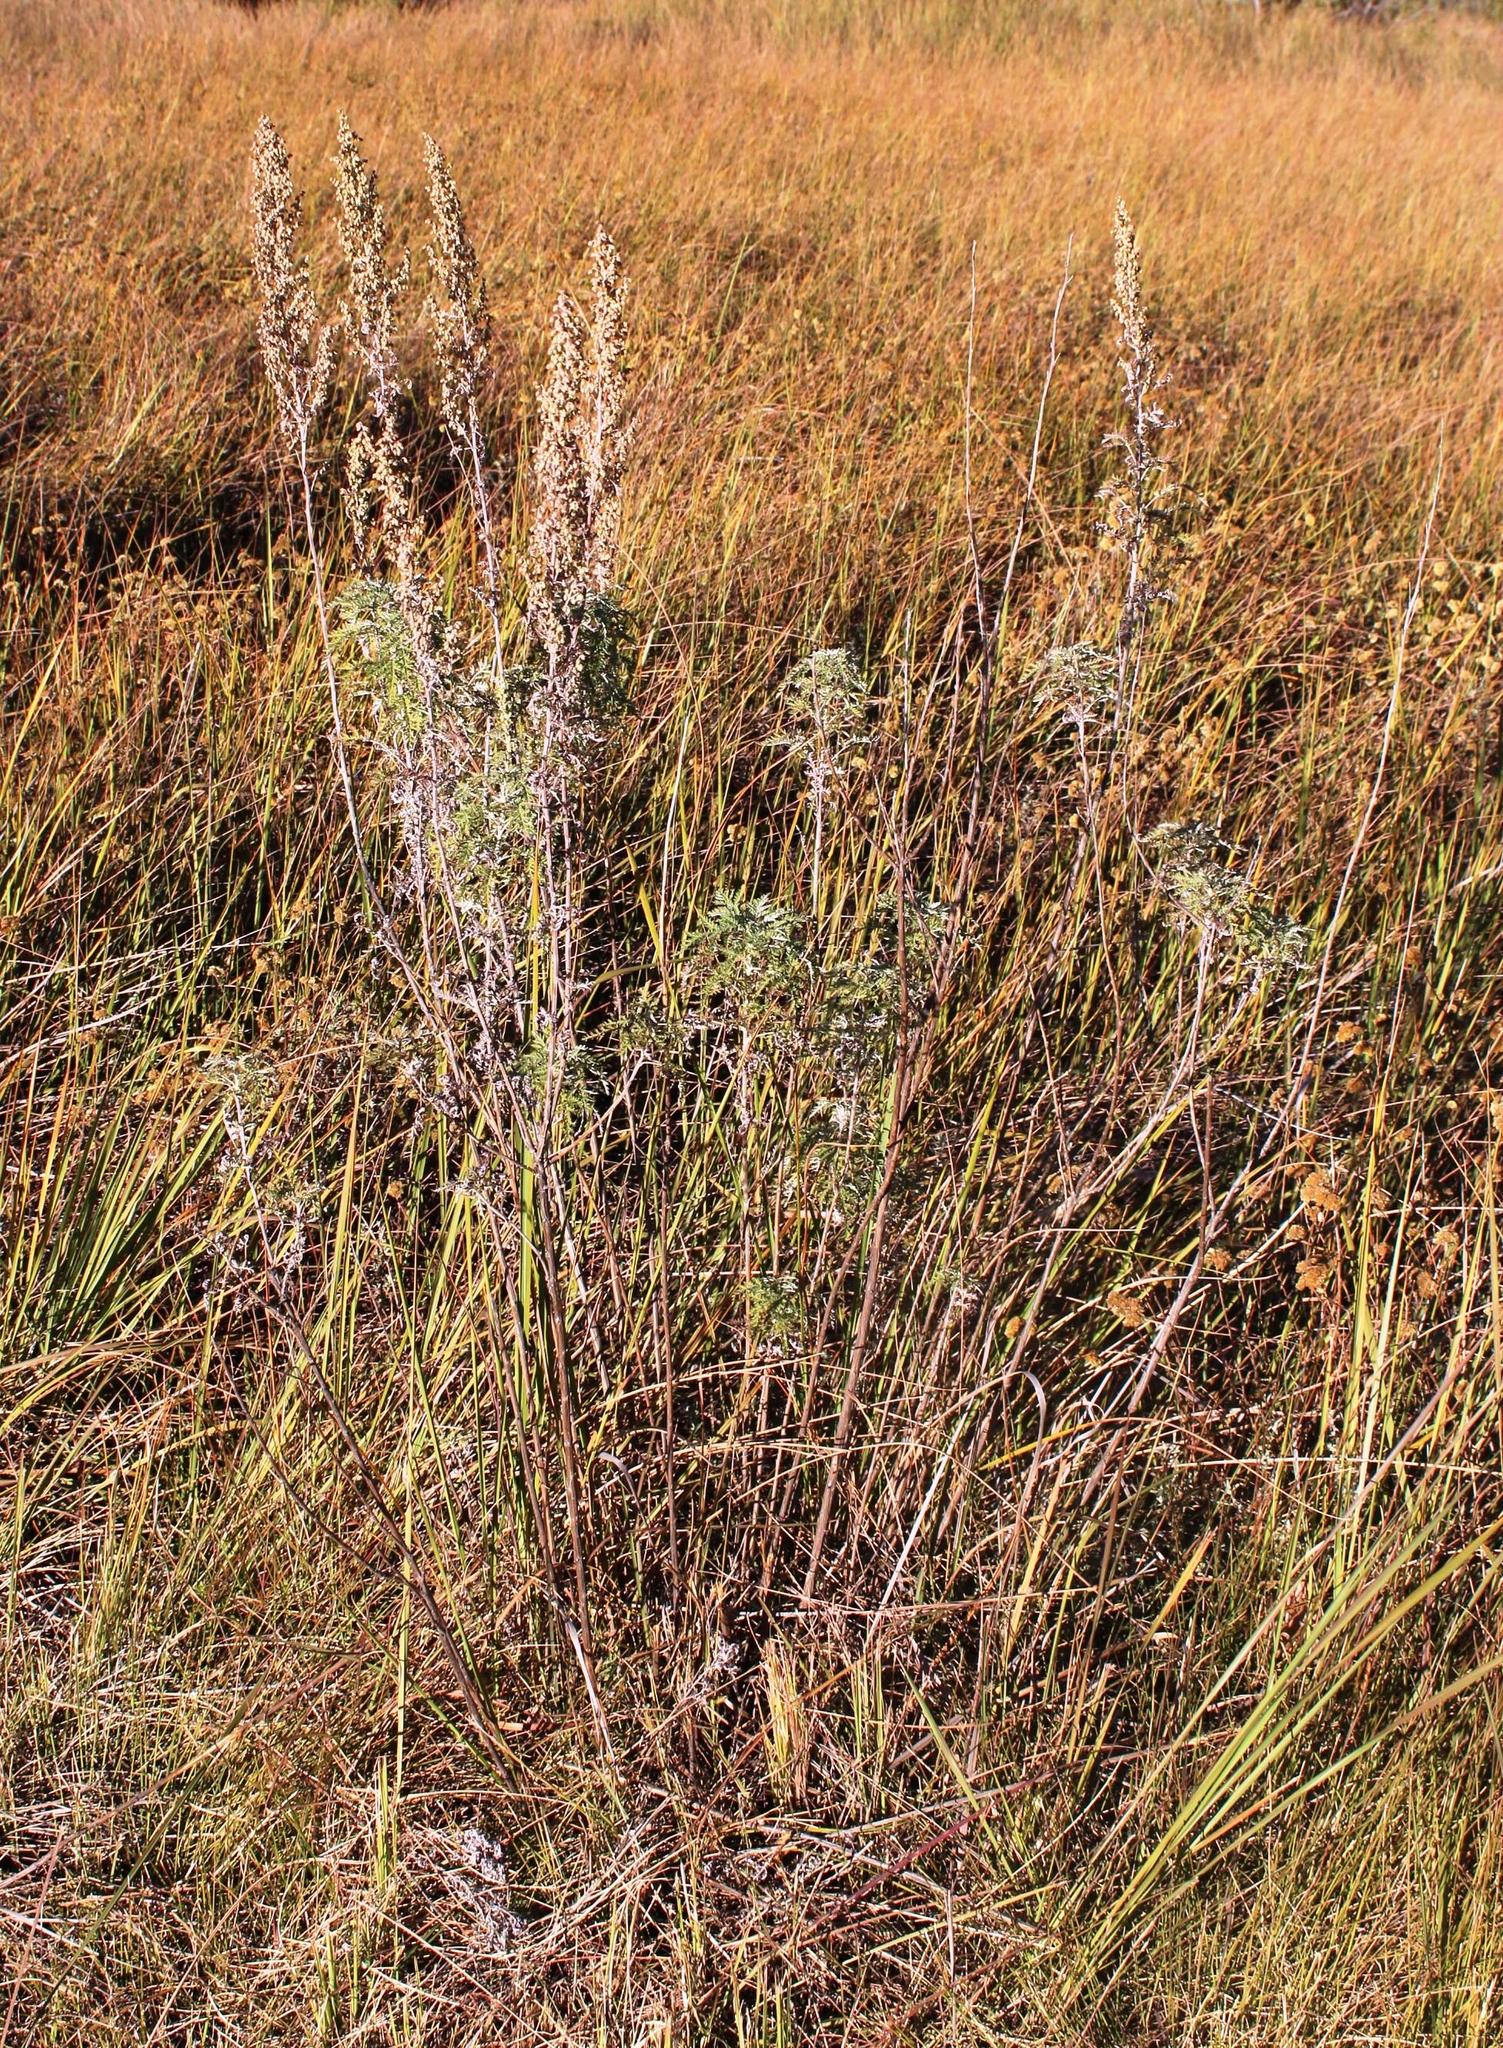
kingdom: Plantae
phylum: Tracheophyta
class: Magnoliopsida
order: Asterales
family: Asteraceae
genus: Artemisia
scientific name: Artemisia afra
